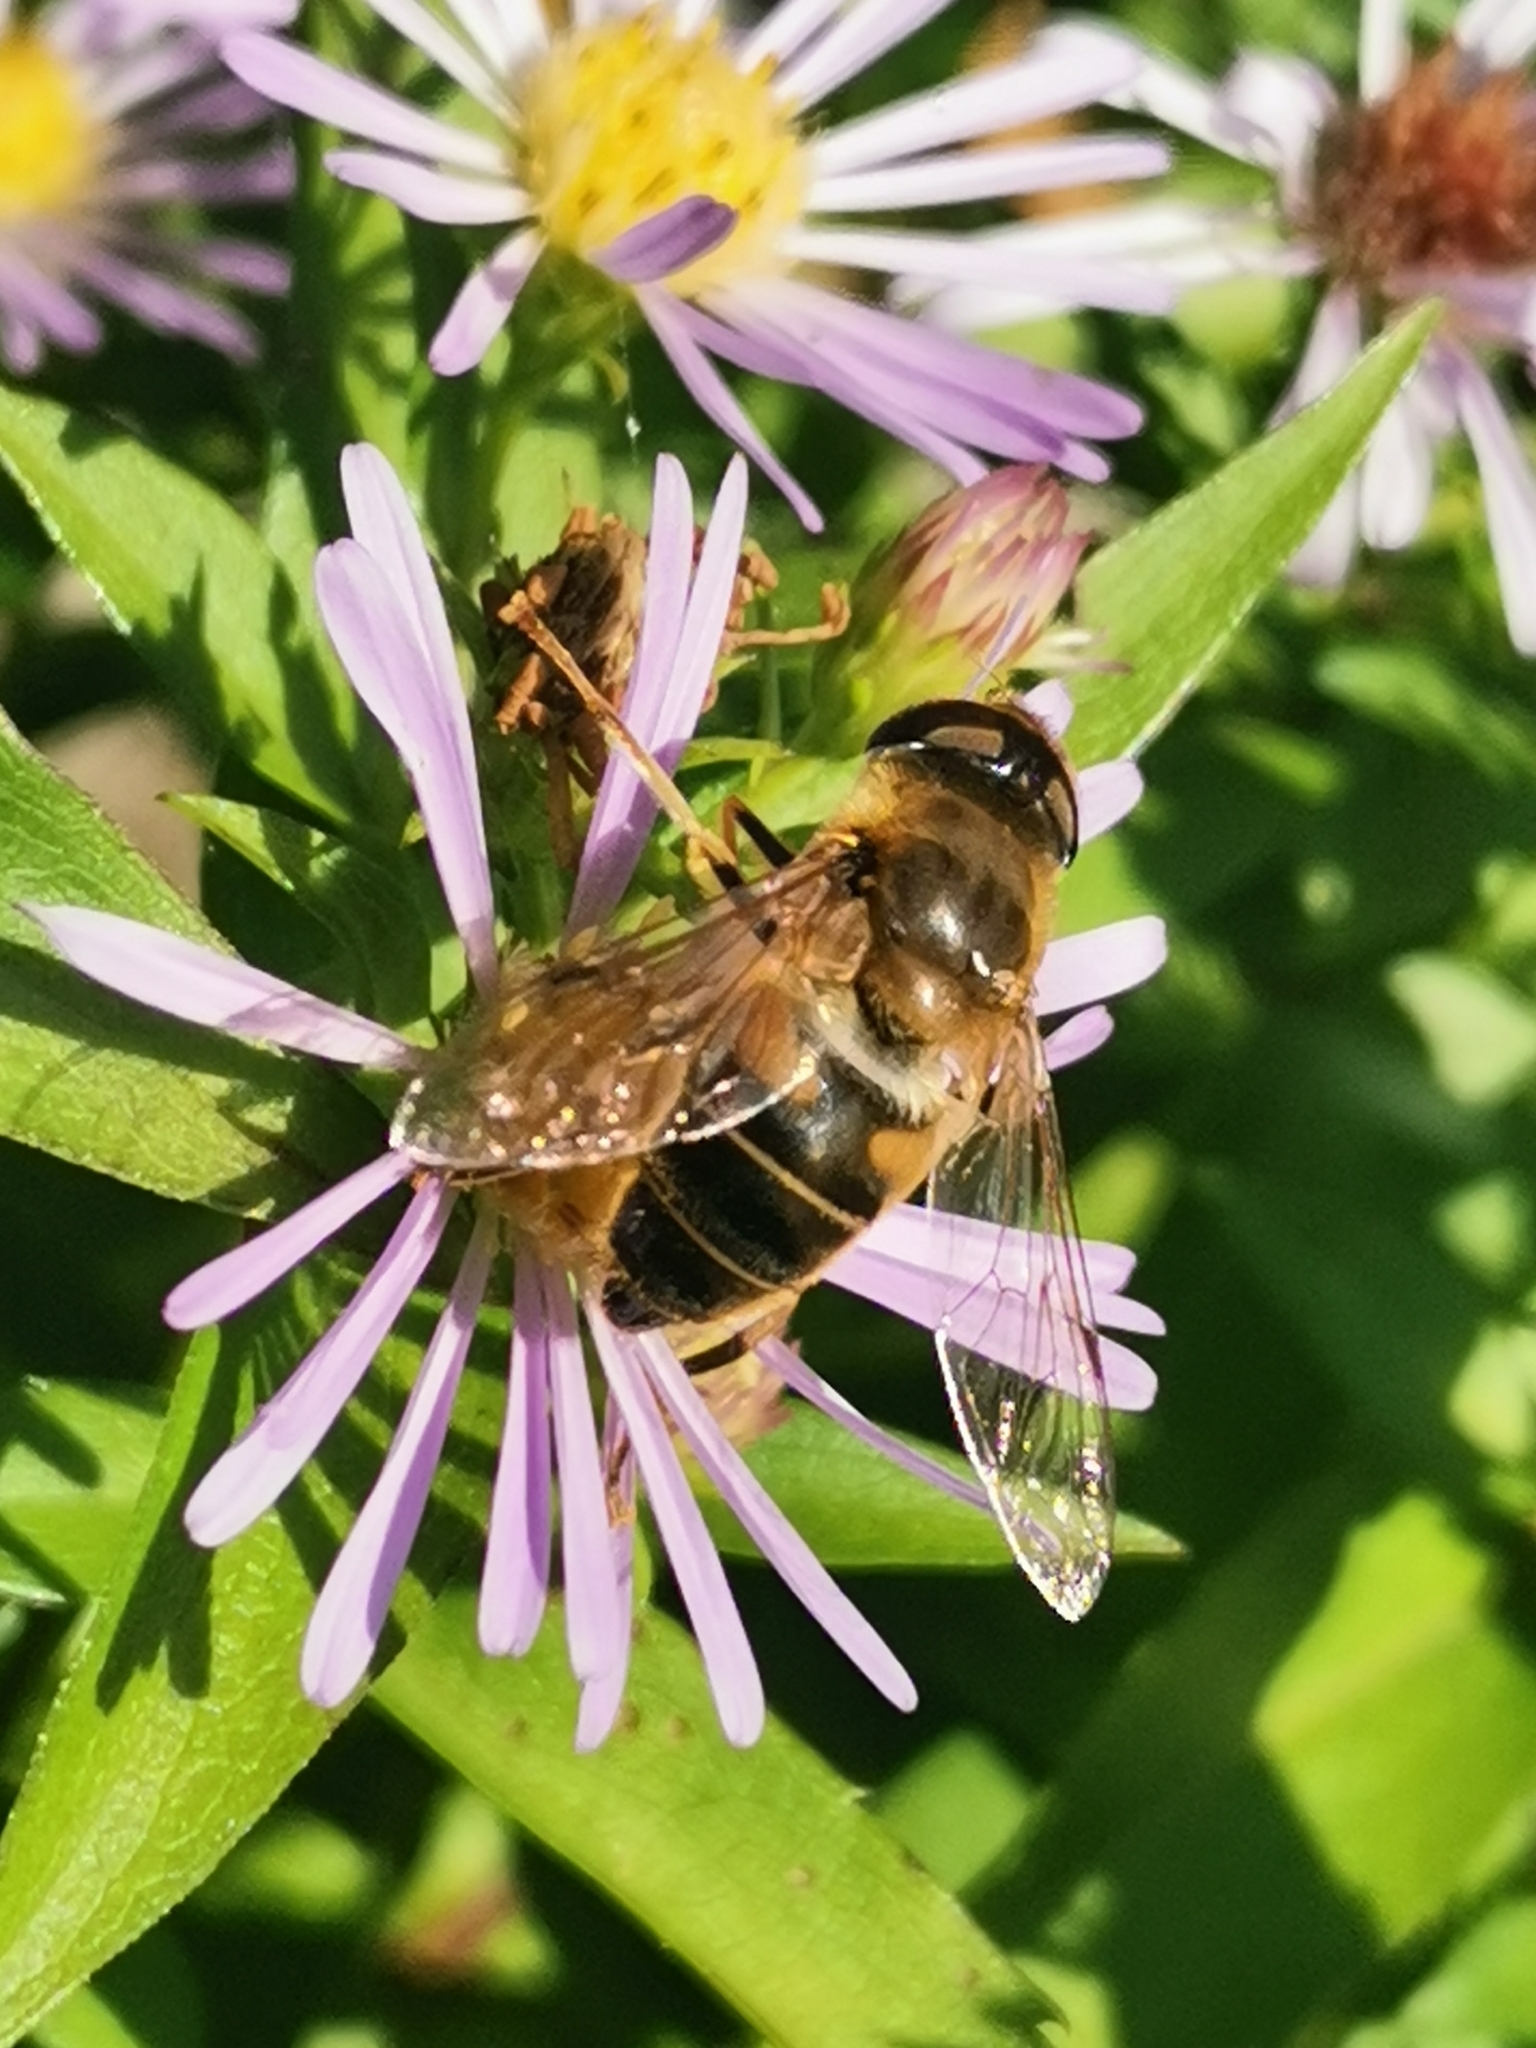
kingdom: Animalia
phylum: Arthropoda
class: Insecta
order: Diptera
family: Syrphidae
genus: Eristalis
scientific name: Eristalis pertinax
